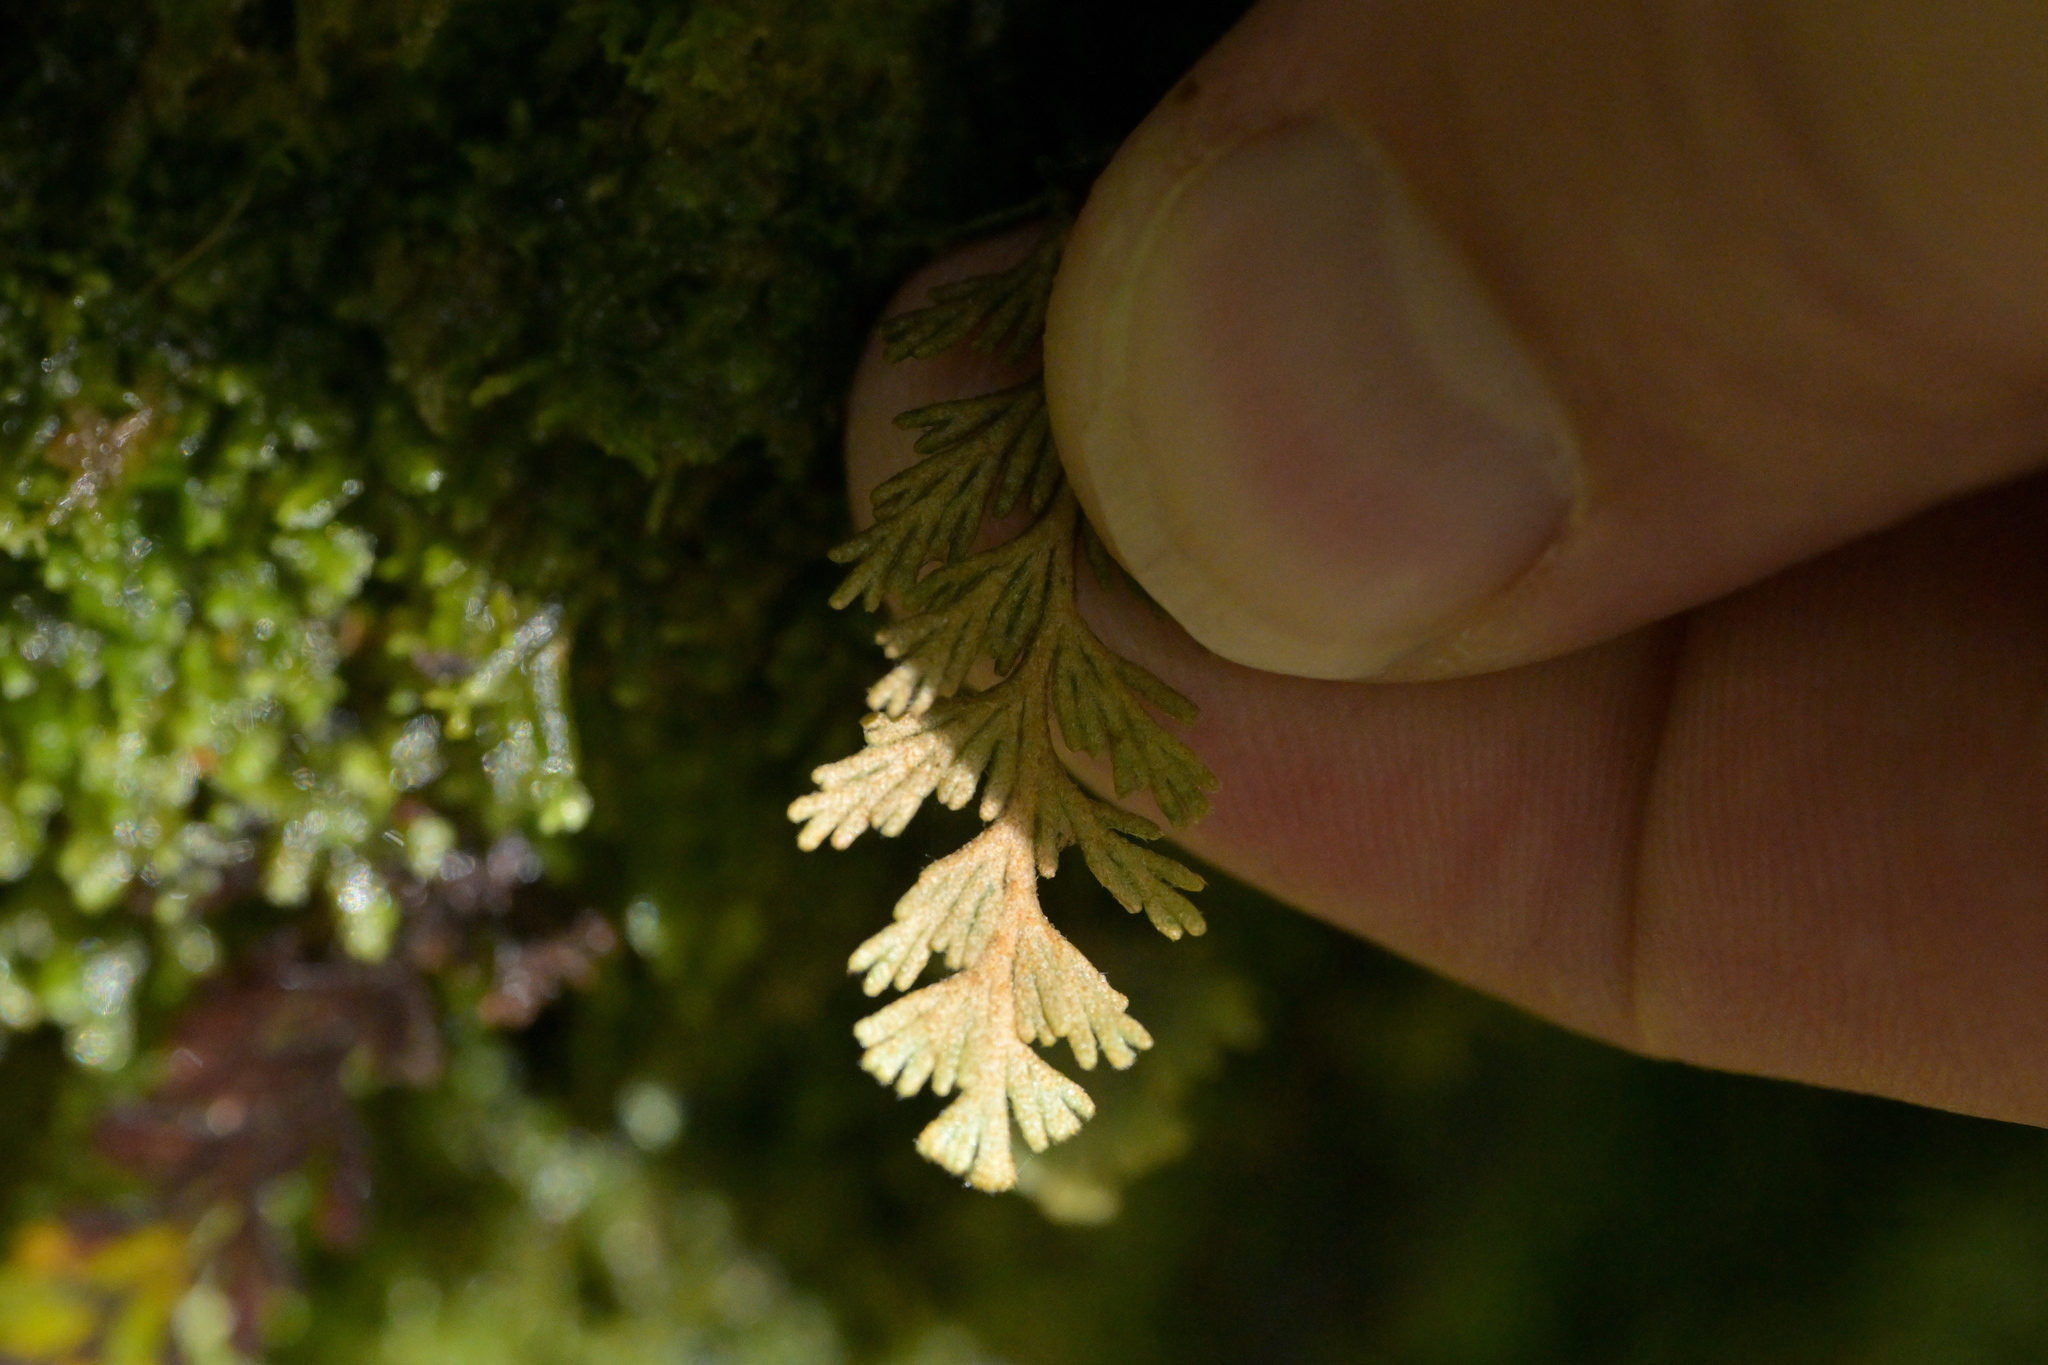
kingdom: Plantae
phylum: Tracheophyta
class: Polypodiopsida
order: Hymenophyllales
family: Hymenophyllaceae
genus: Hymenophyllum
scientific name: Hymenophyllum malingii
